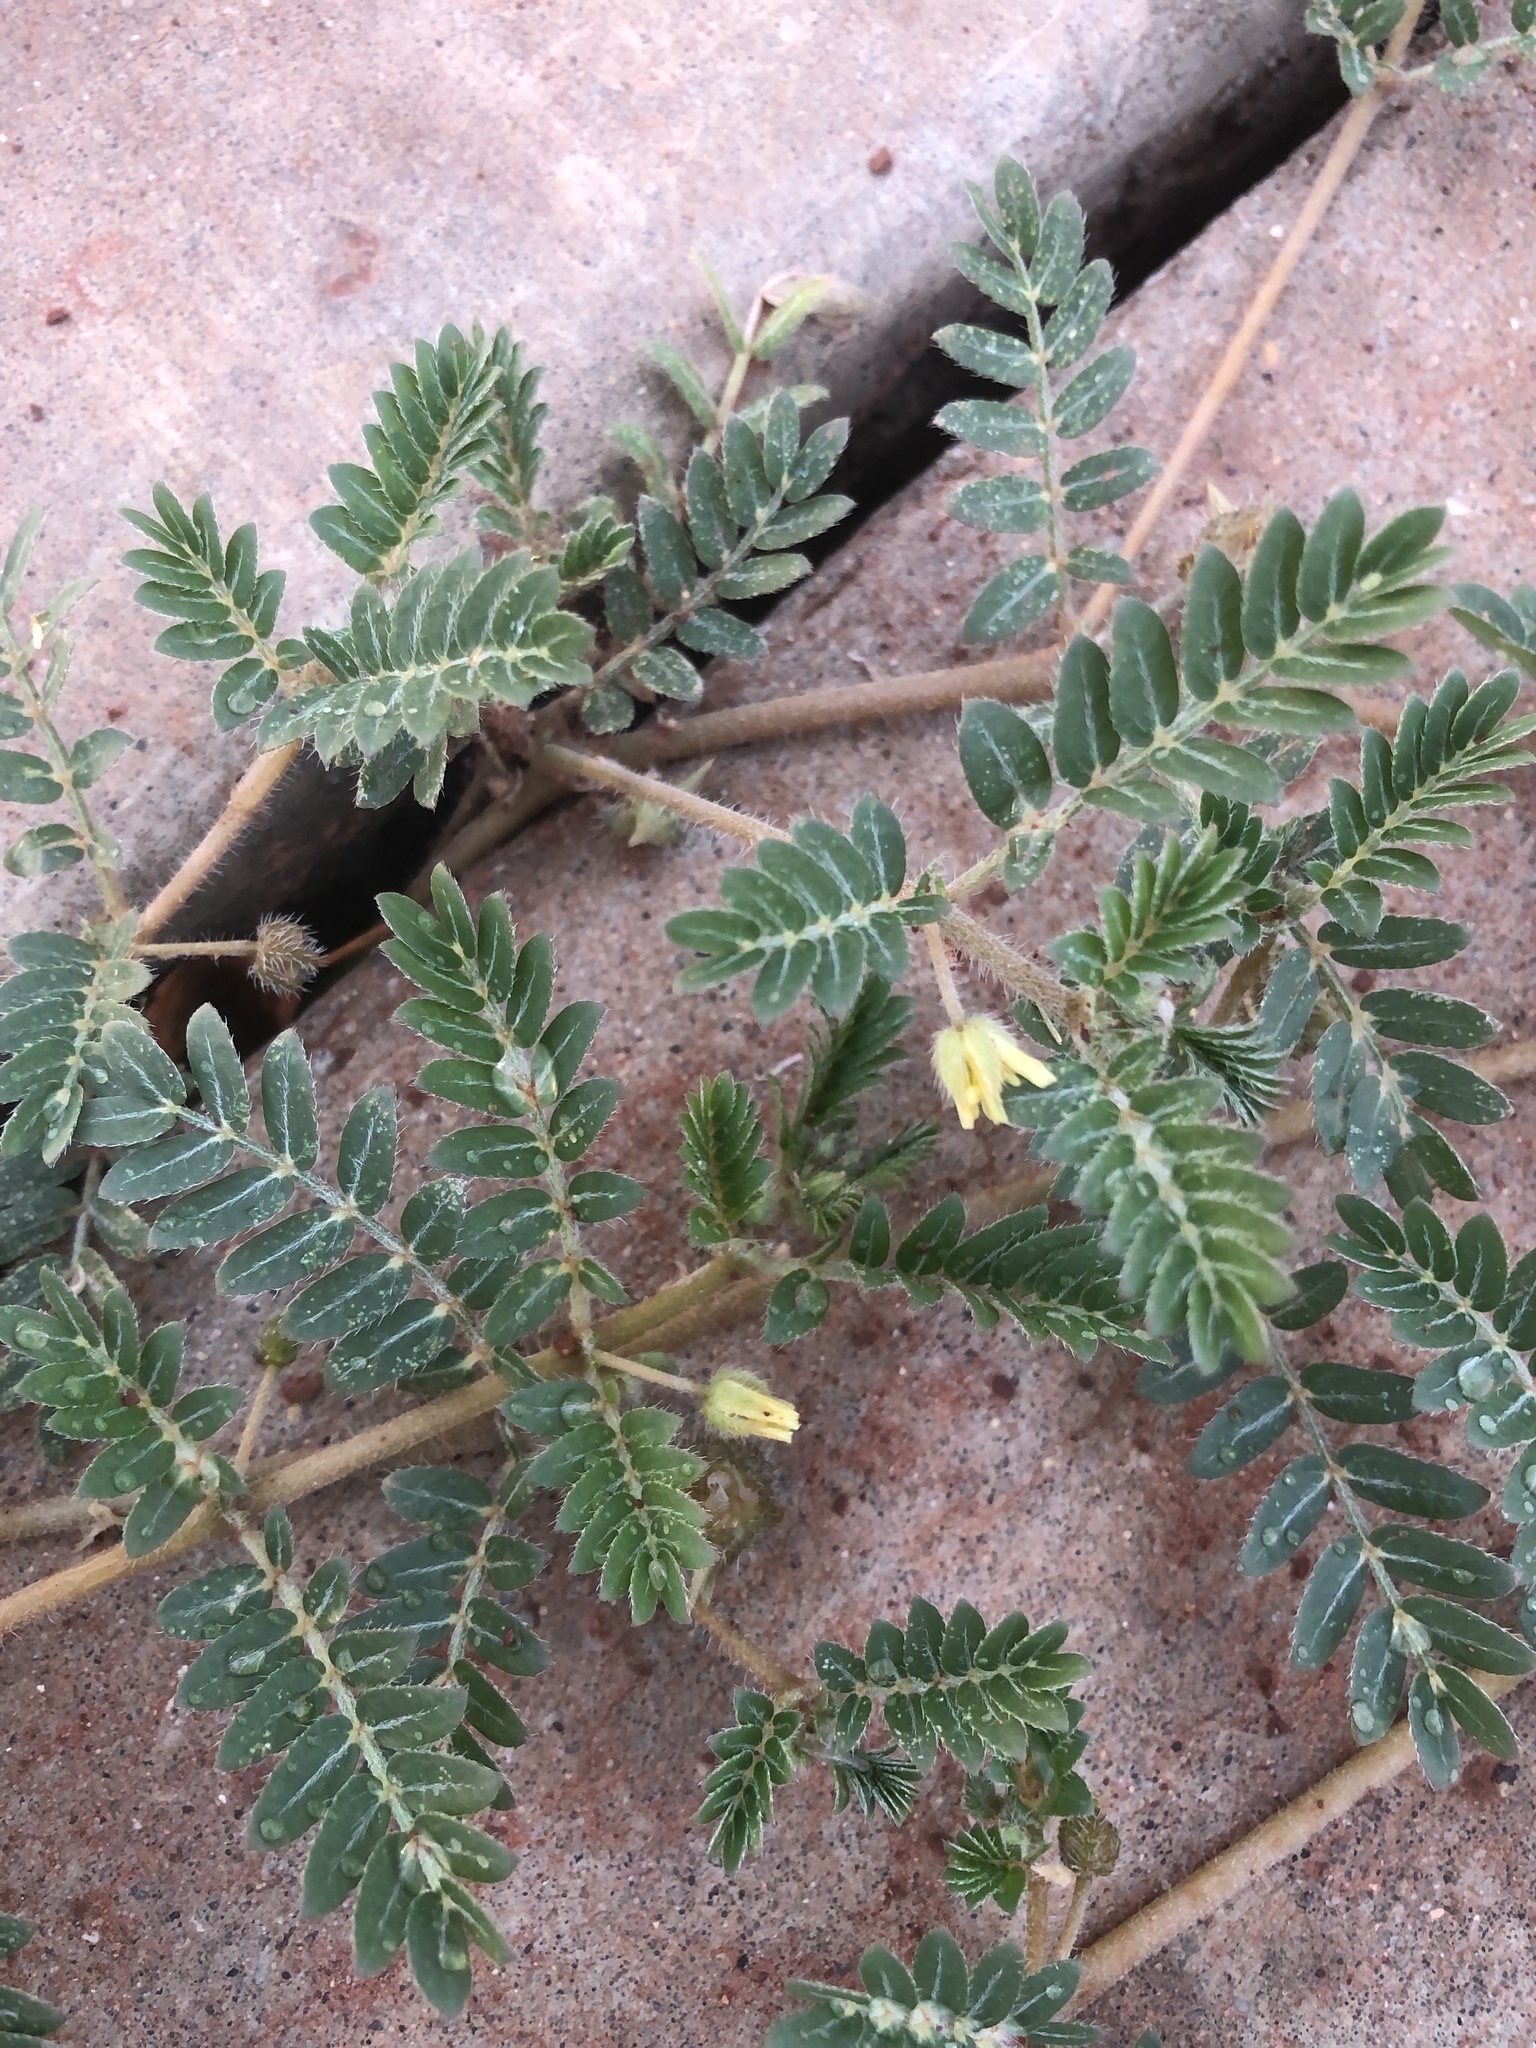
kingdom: Plantae
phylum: Tracheophyta
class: Magnoliopsida
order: Zygophyllales
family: Zygophyllaceae
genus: Tribulus
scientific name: Tribulus terrestris
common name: Puncturevine
